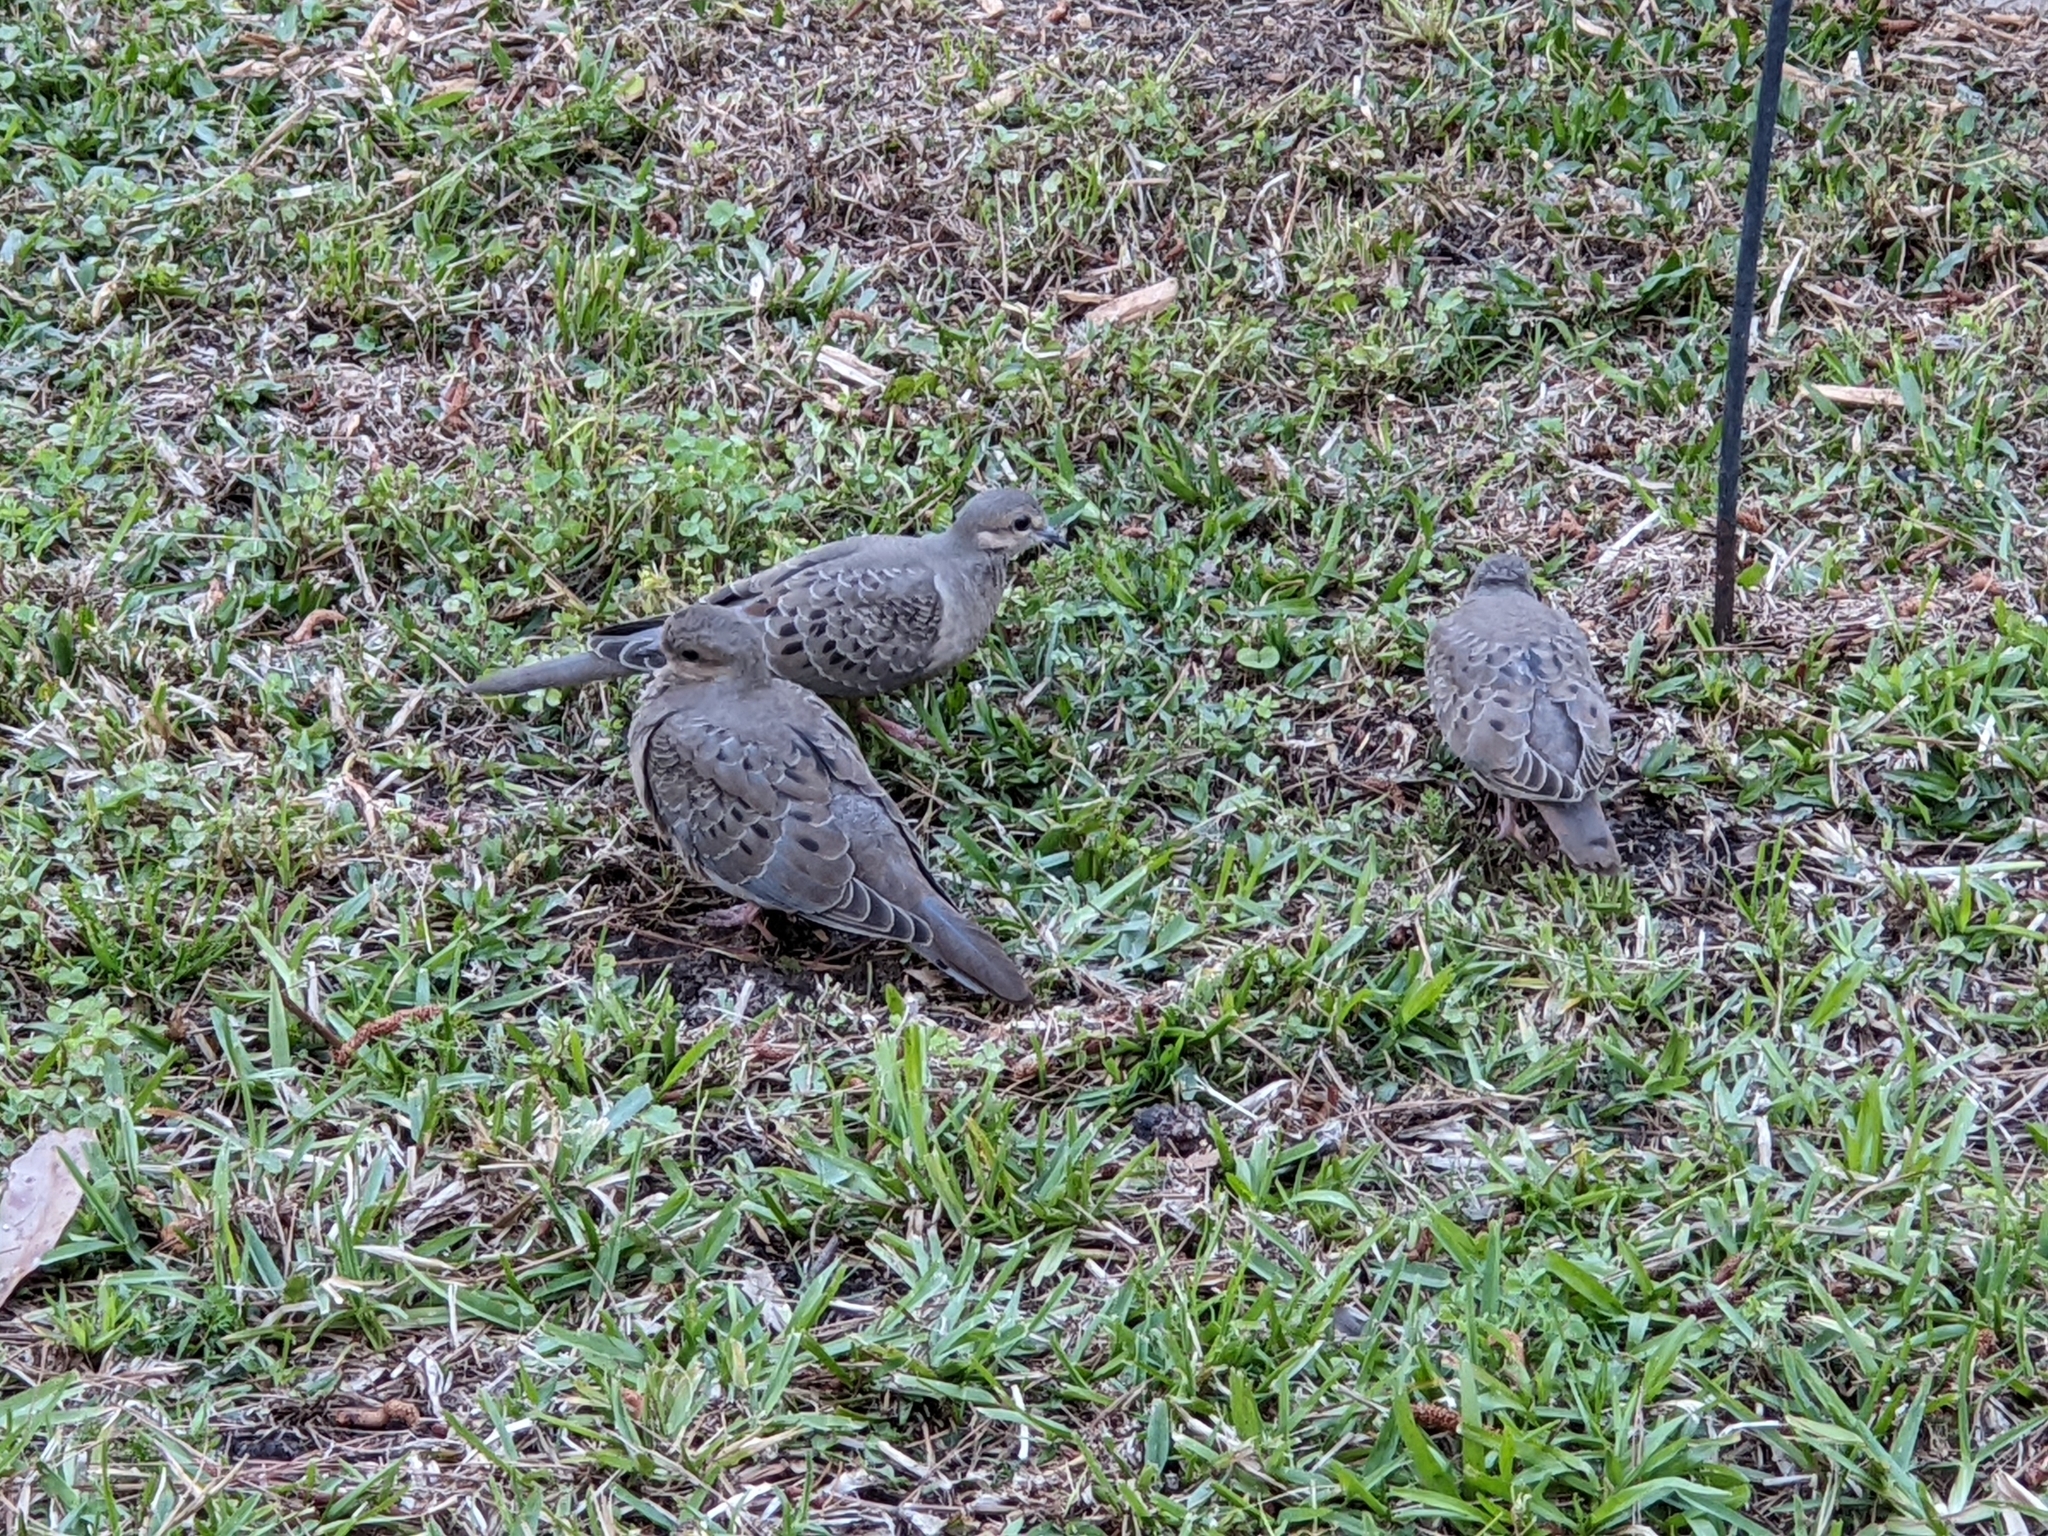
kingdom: Animalia
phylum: Chordata
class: Aves
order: Columbiformes
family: Columbidae
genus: Zenaida
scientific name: Zenaida macroura
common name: Mourning dove
